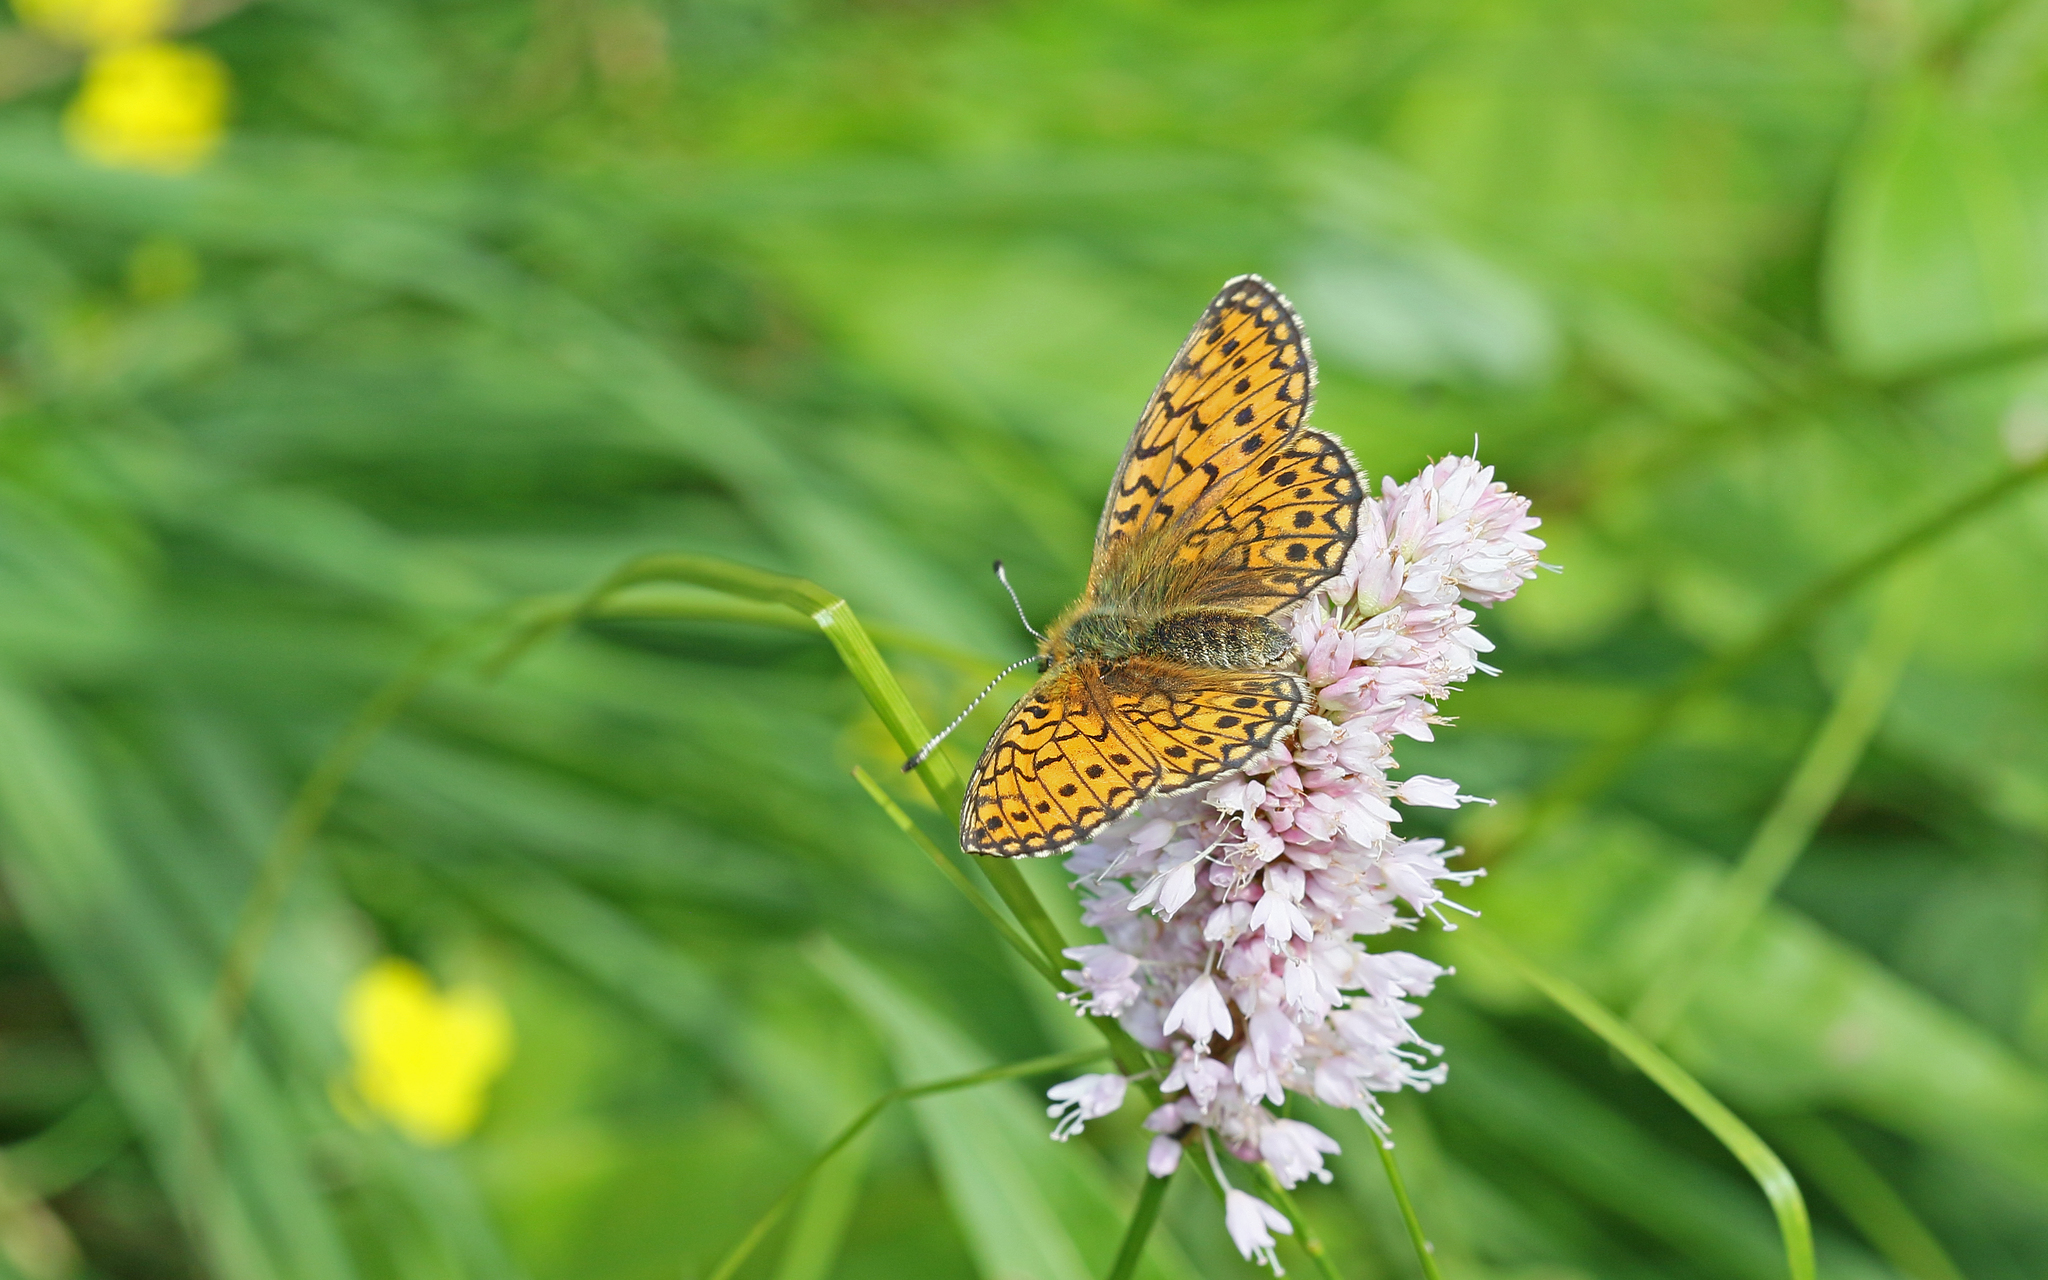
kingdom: Animalia
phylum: Arthropoda
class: Insecta
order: Lepidoptera
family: Nymphalidae
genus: Boloria
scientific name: Boloria eunomia
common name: Bog fritillary
